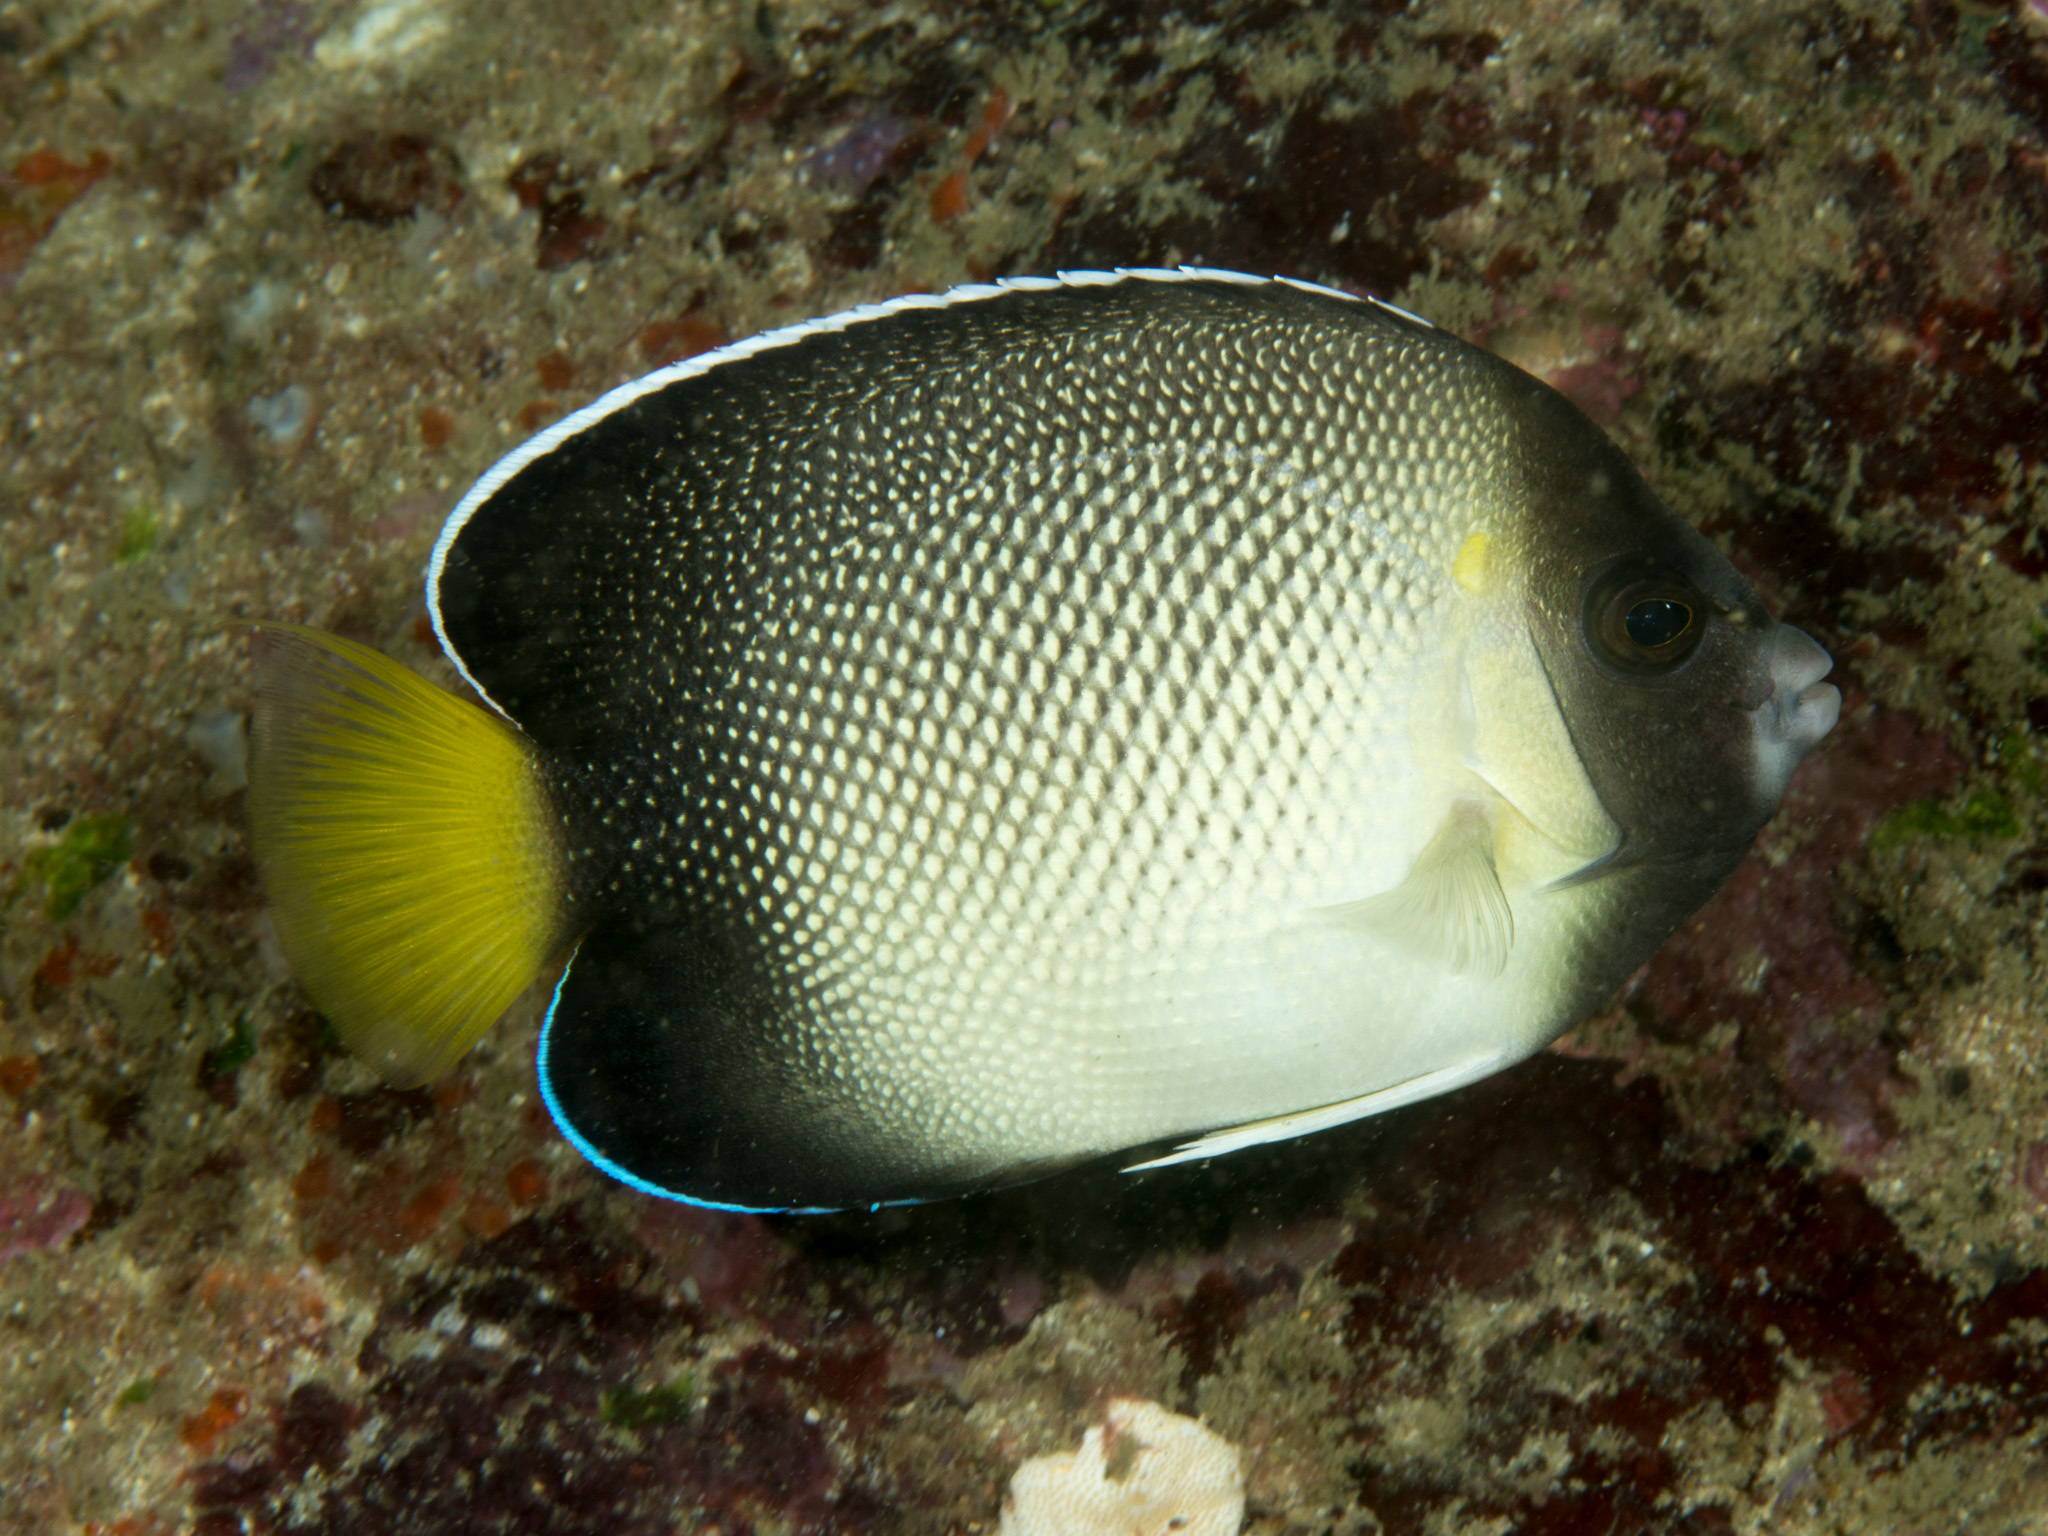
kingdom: Animalia
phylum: Chordata
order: Perciformes
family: Pomacanthidae
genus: Apolemichthys
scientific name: Apolemichthys xanthurus
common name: Indian yellowtail angelfish
